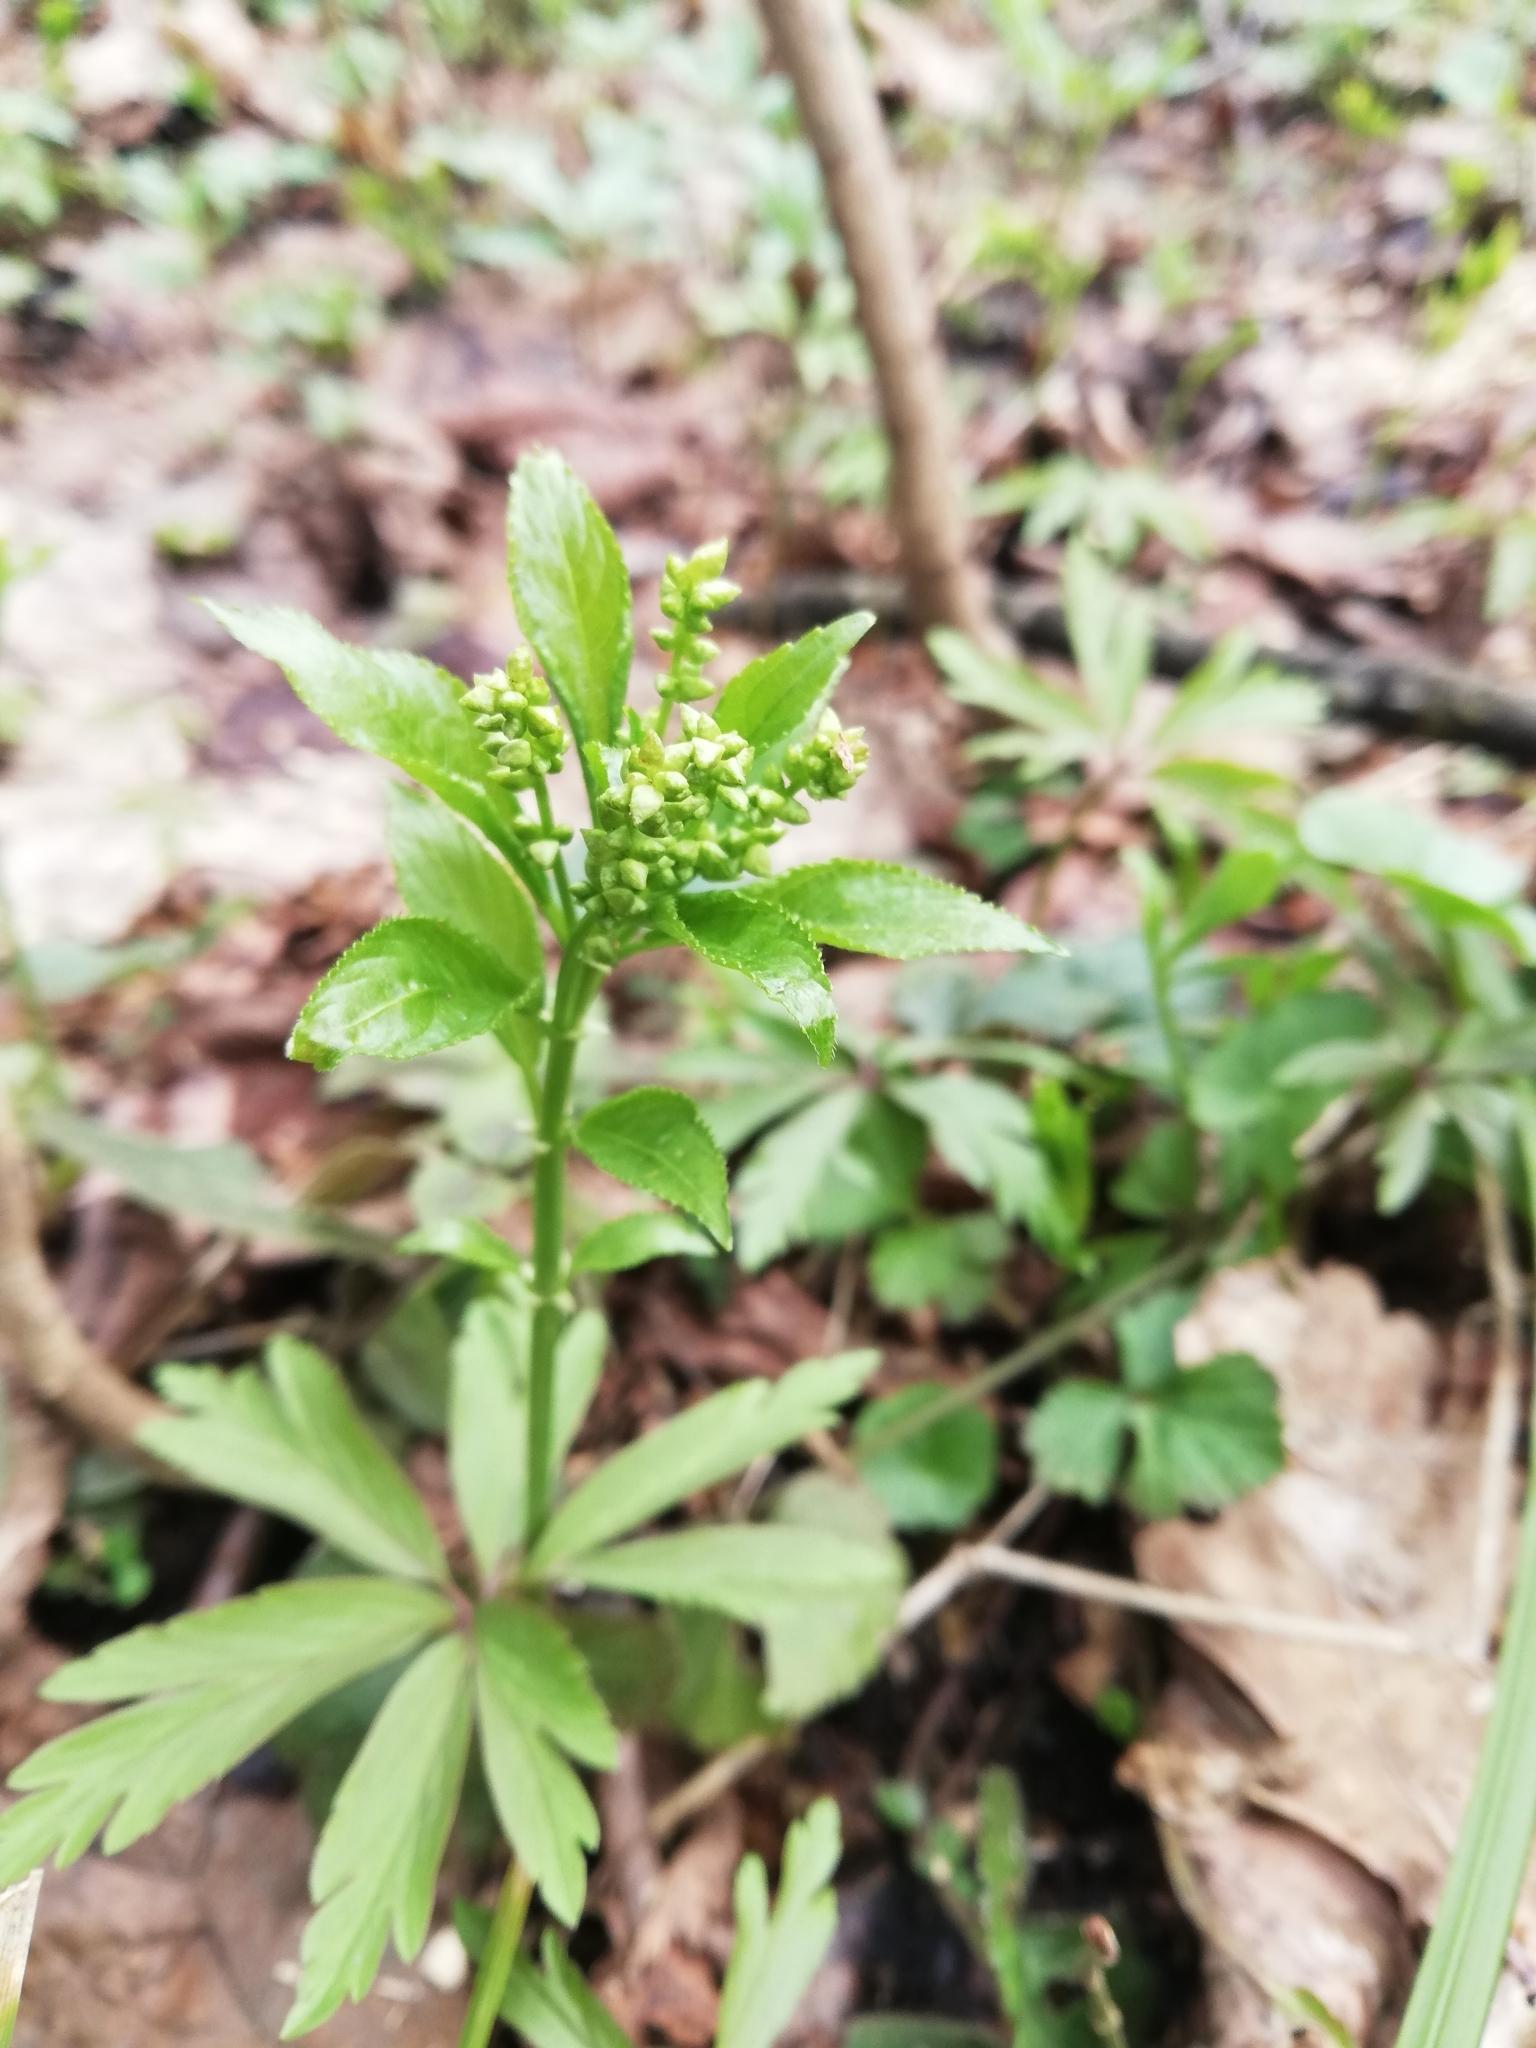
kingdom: Plantae
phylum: Tracheophyta
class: Magnoliopsida
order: Malpighiales
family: Euphorbiaceae
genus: Mercurialis
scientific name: Mercurialis perennis
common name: Dog mercury
